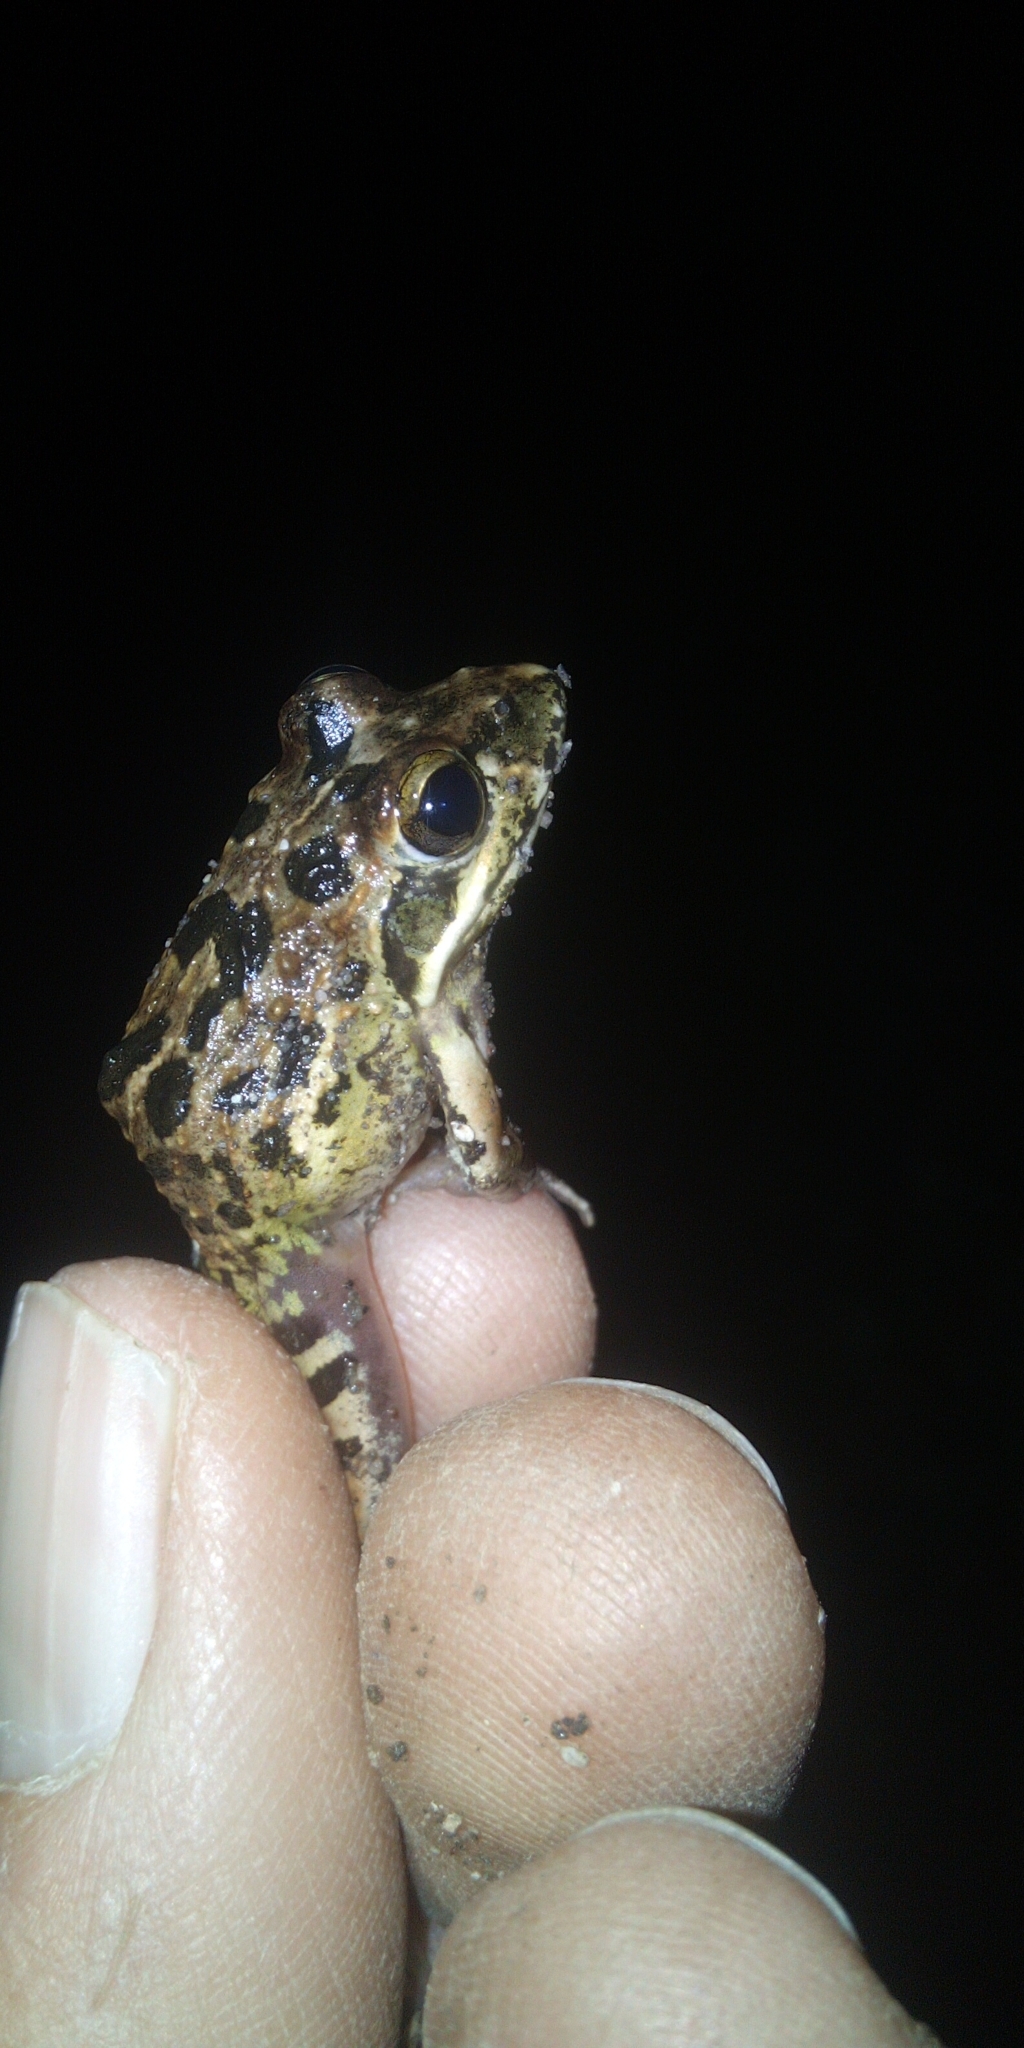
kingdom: Animalia
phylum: Chordata
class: Amphibia
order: Anura
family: Pyxicephalidae
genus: Strongylopus
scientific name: Strongylopus grayii
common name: Gray's stream frog
